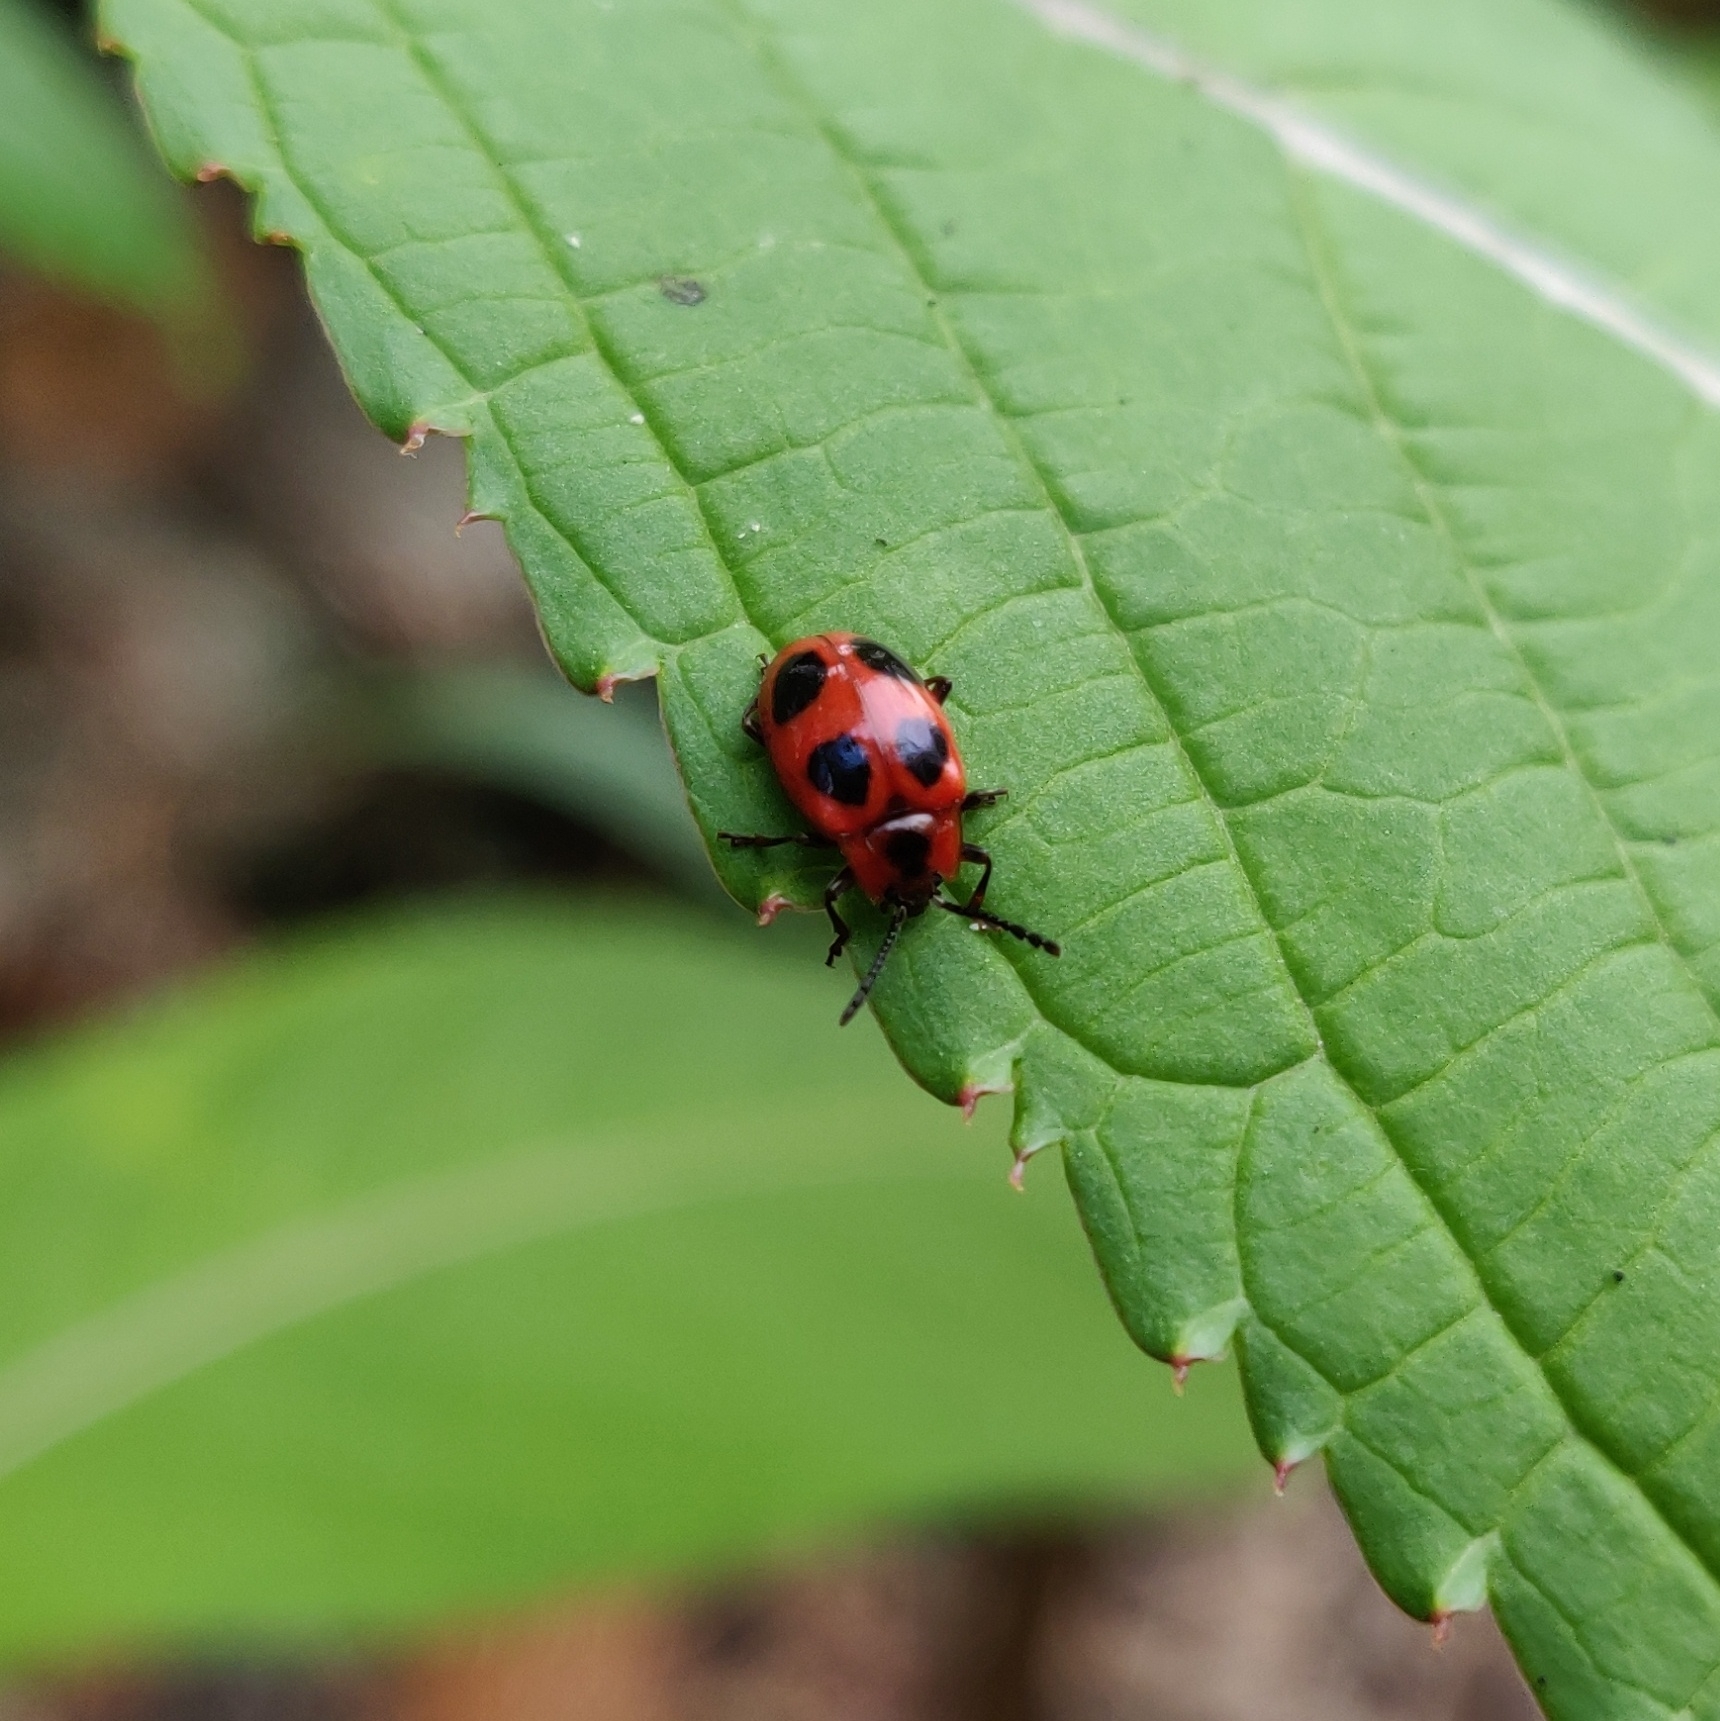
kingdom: Animalia
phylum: Arthropoda
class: Insecta
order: Coleoptera
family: Endomychidae
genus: Endomychus
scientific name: Endomychus coccineus
